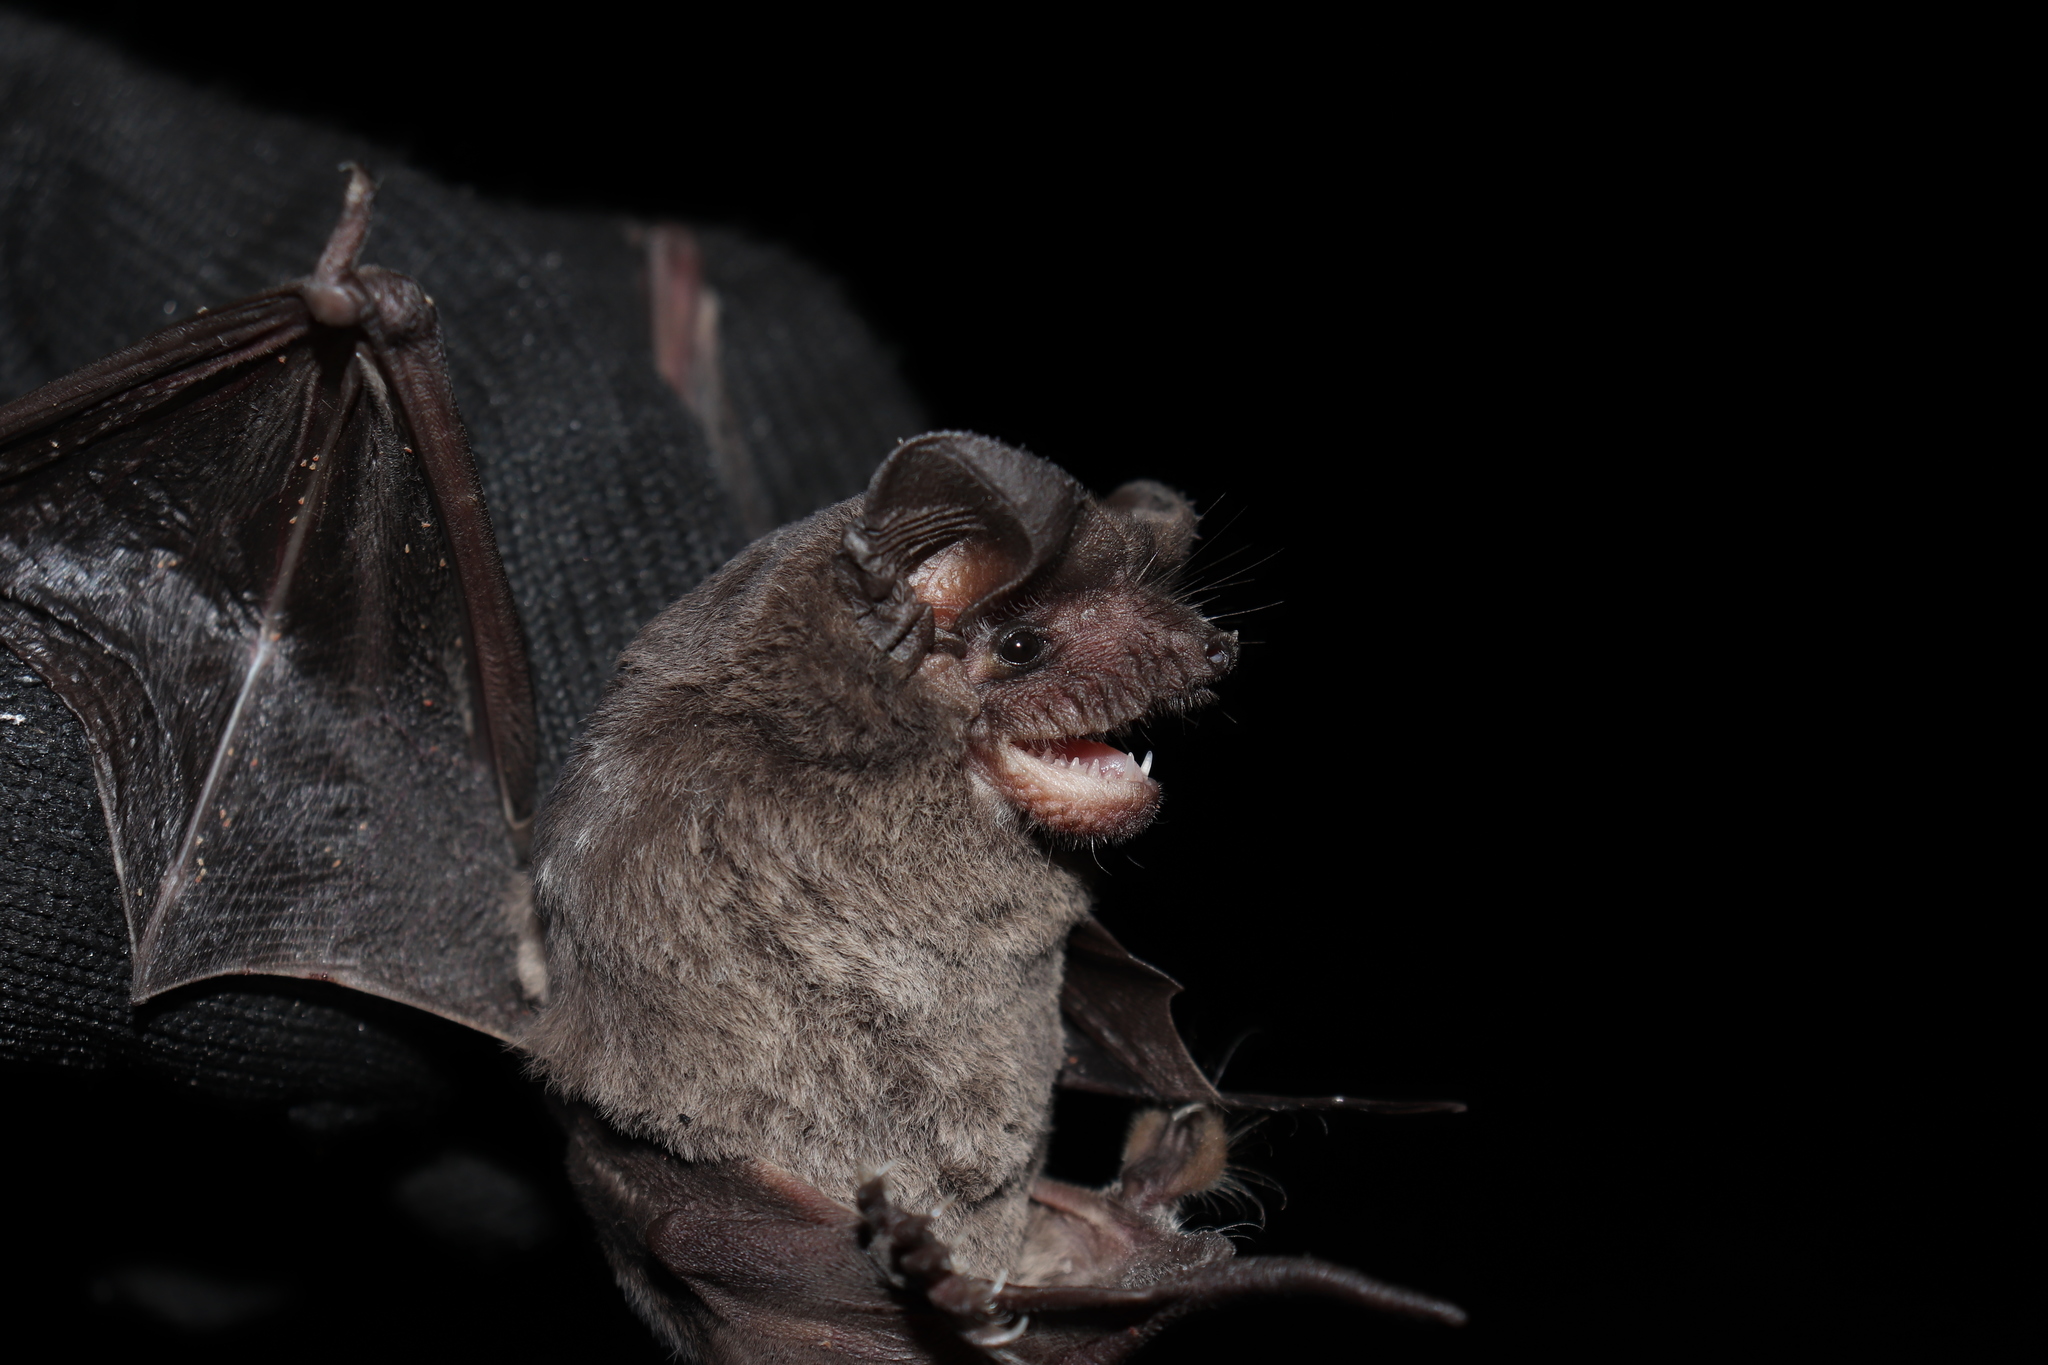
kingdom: Animalia
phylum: Chordata
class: Mammalia
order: Chiroptera
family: Molossidae
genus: Tadarida
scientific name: Tadarida brasiliensis
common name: Mexican free-tailed bat
